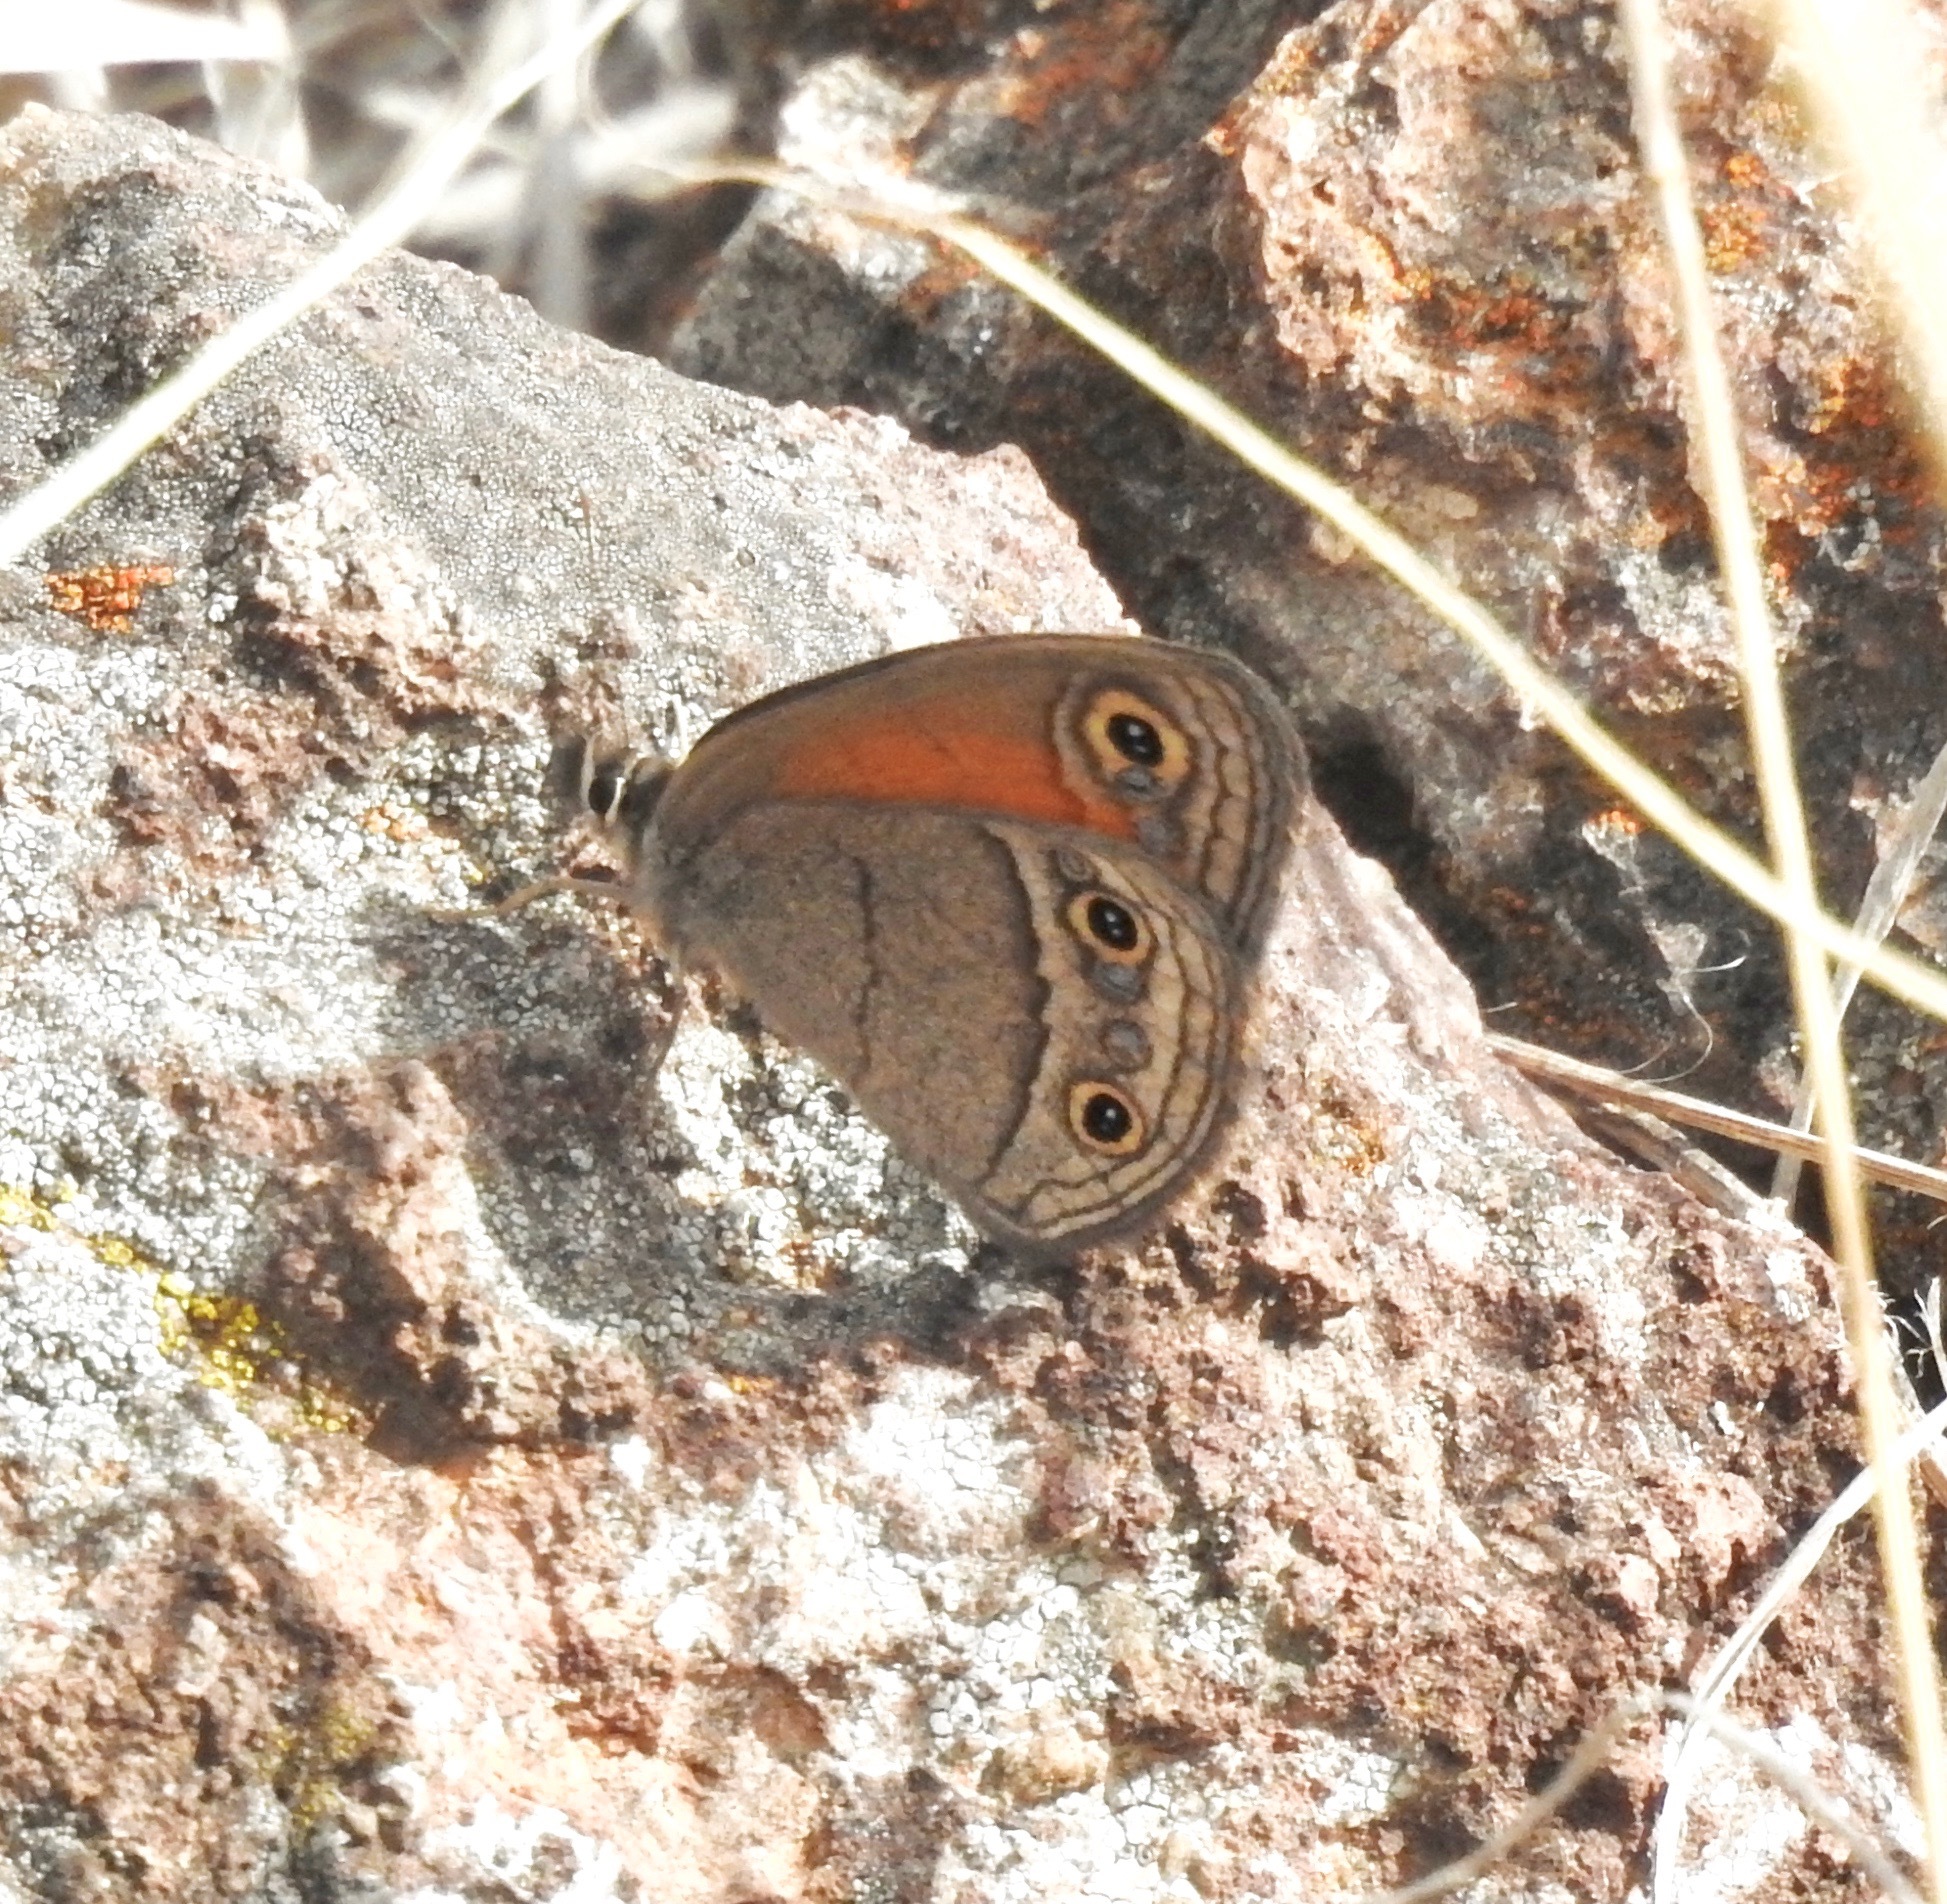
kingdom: Animalia
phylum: Arthropoda
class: Insecta
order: Lepidoptera
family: Nymphalidae
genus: Euptychia
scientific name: Euptychia Cissia rubricata
